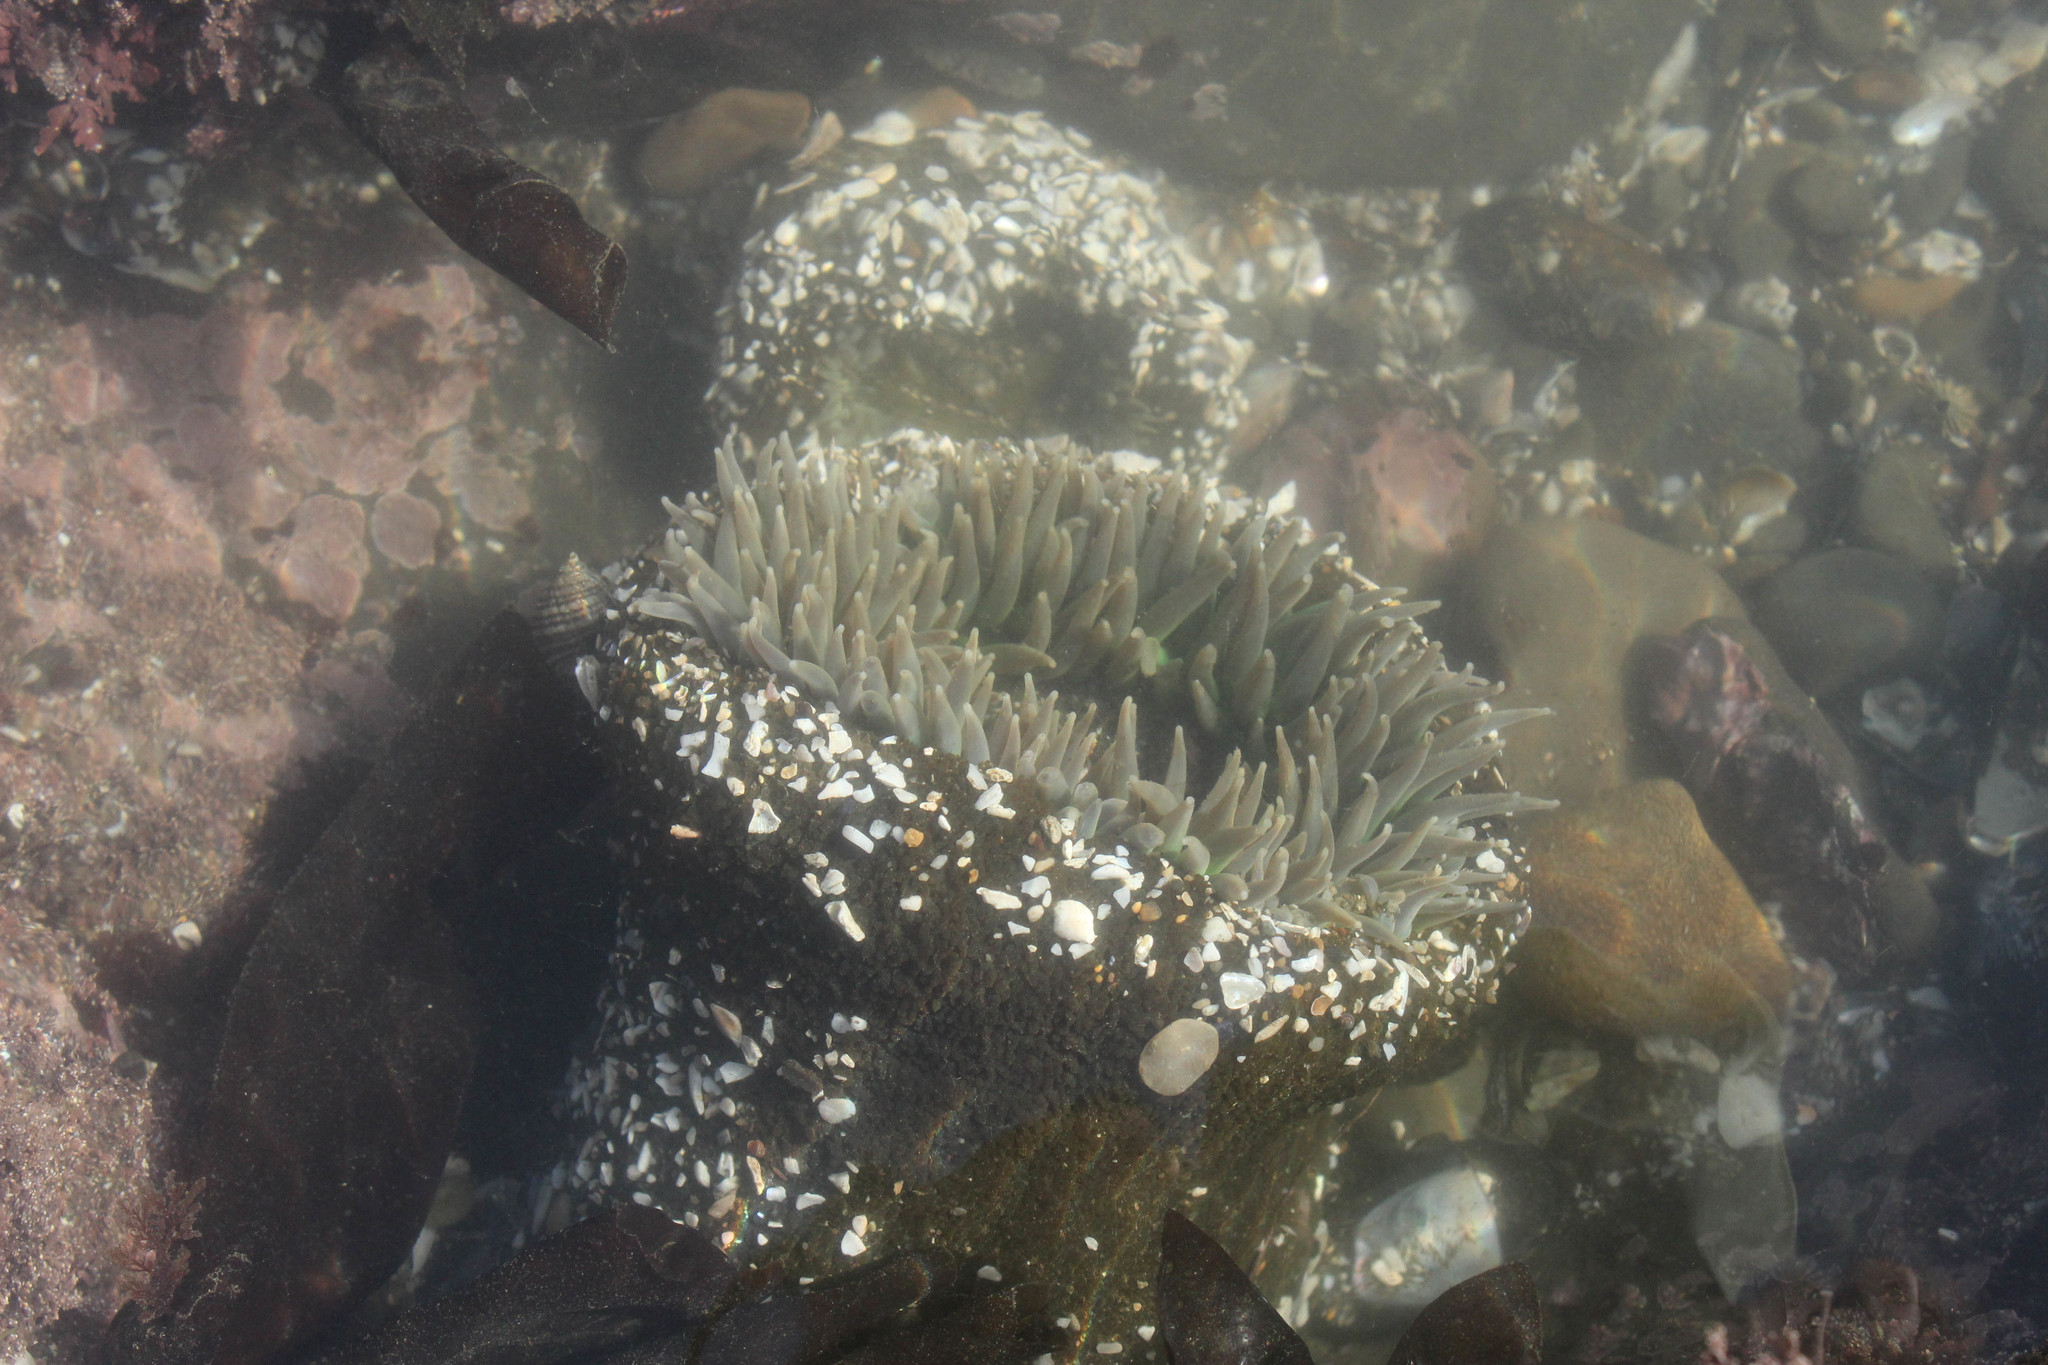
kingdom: Animalia
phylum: Cnidaria
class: Anthozoa
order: Actiniaria
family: Actiniidae
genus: Anthopleura
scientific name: Anthopleura xanthogrammica
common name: Giant green anemone
